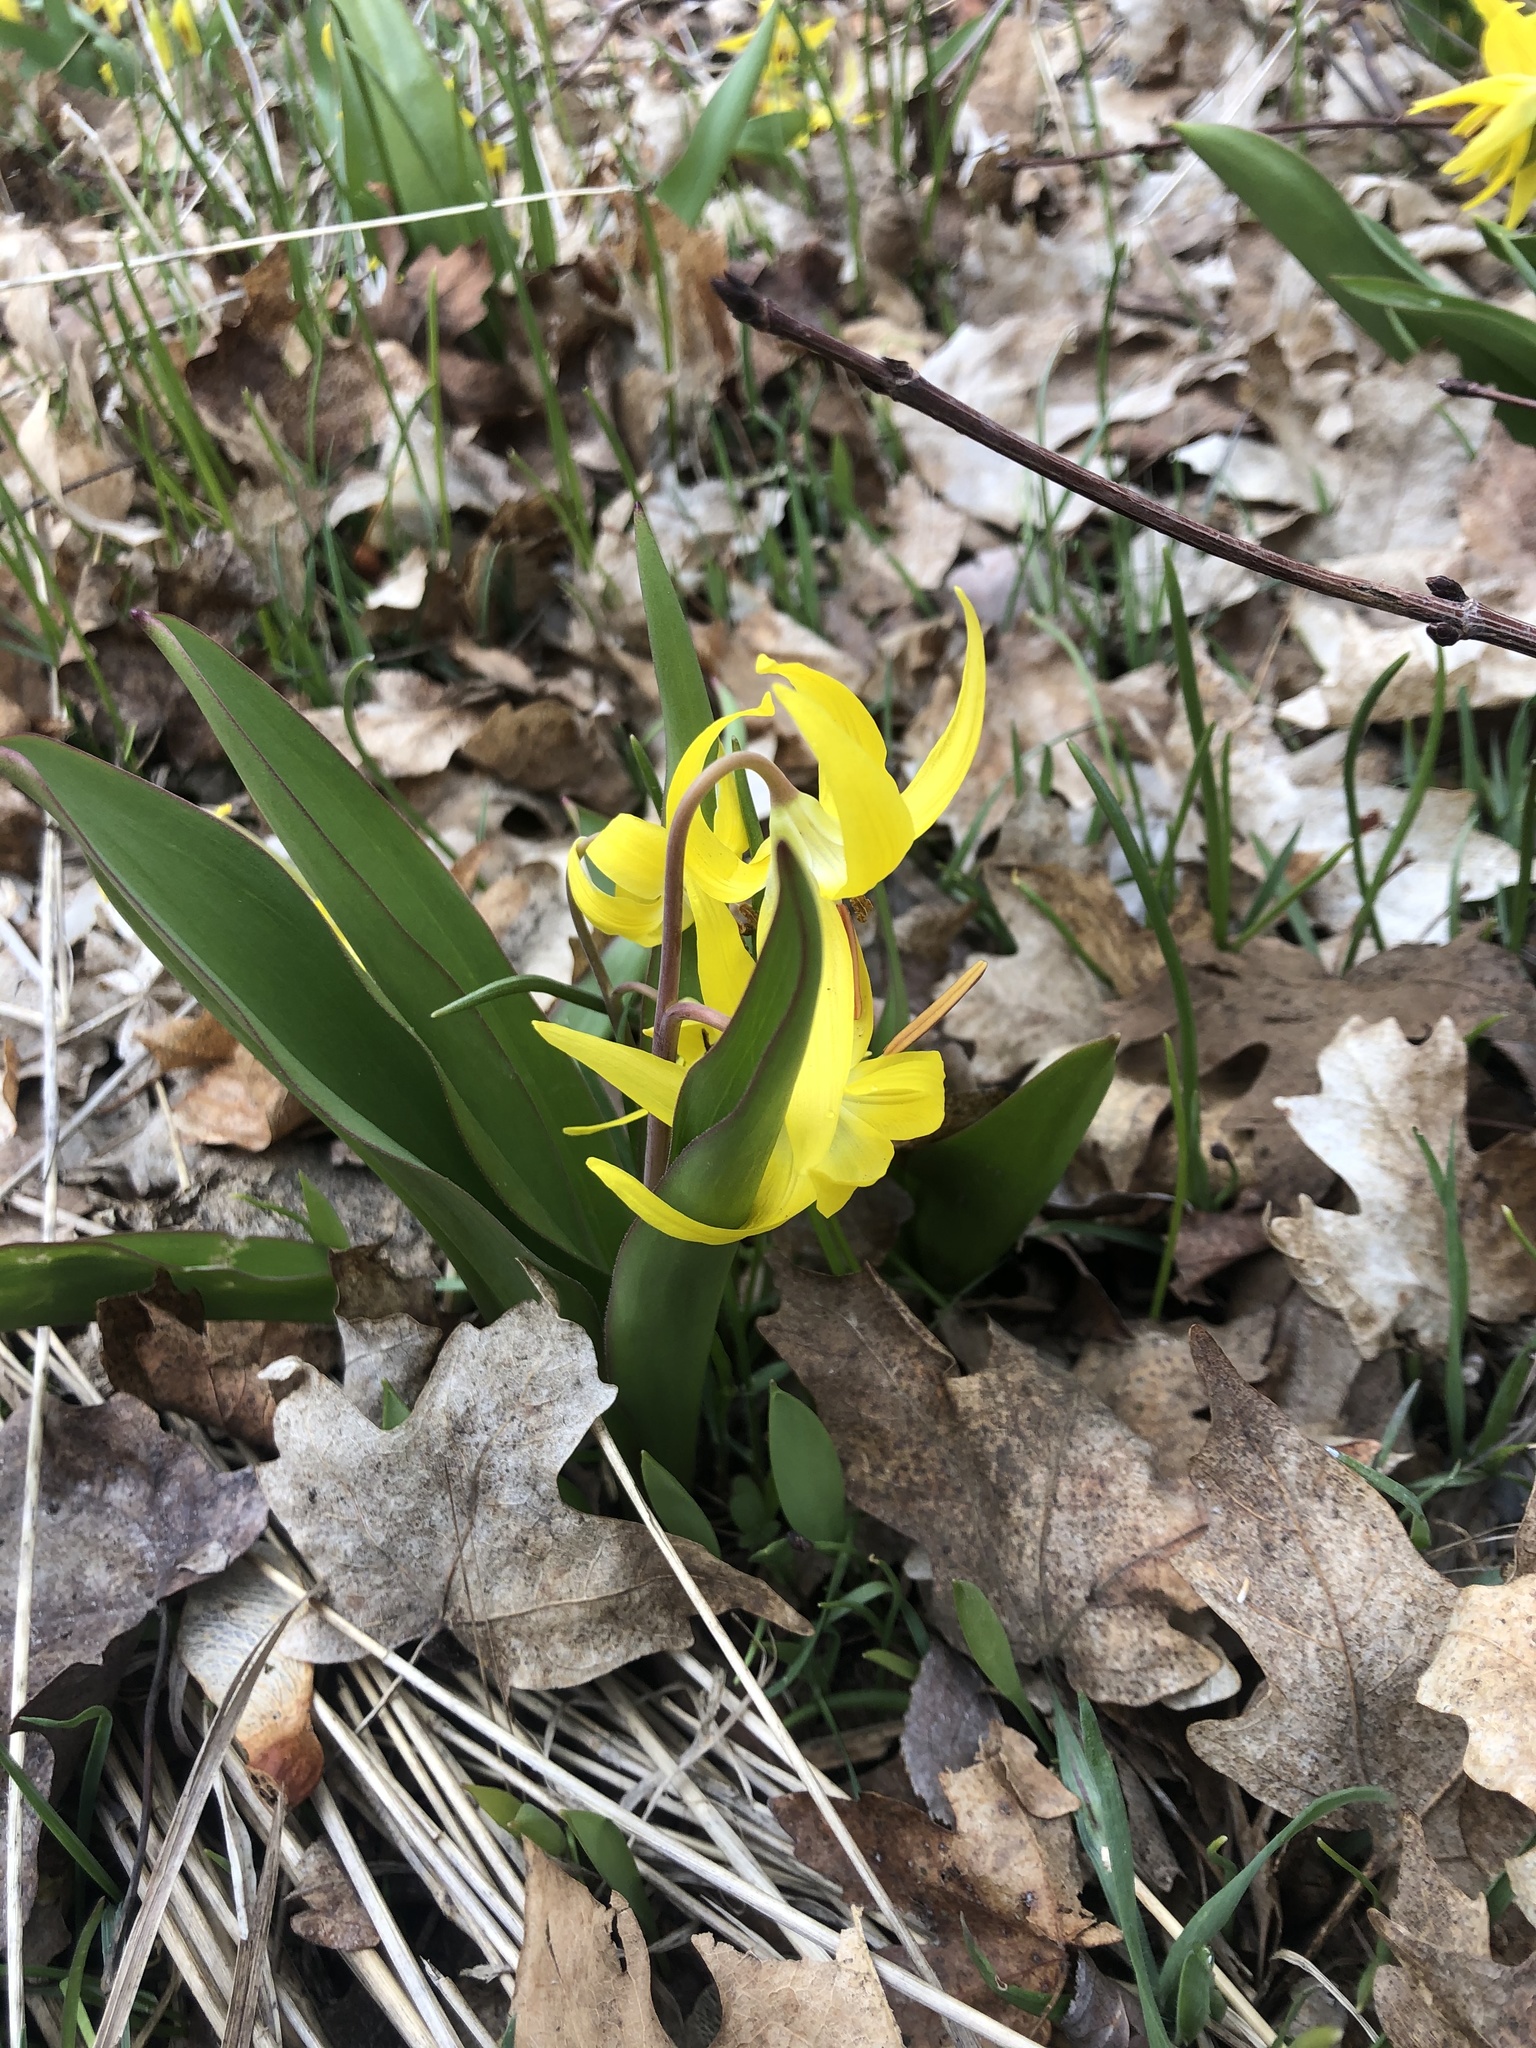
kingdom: Plantae
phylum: Tracheophyta
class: Liliopsida
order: Liliales
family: Liliaceae
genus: Erythronium
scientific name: Erythronium grandiflorum
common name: Avalanche-lily
